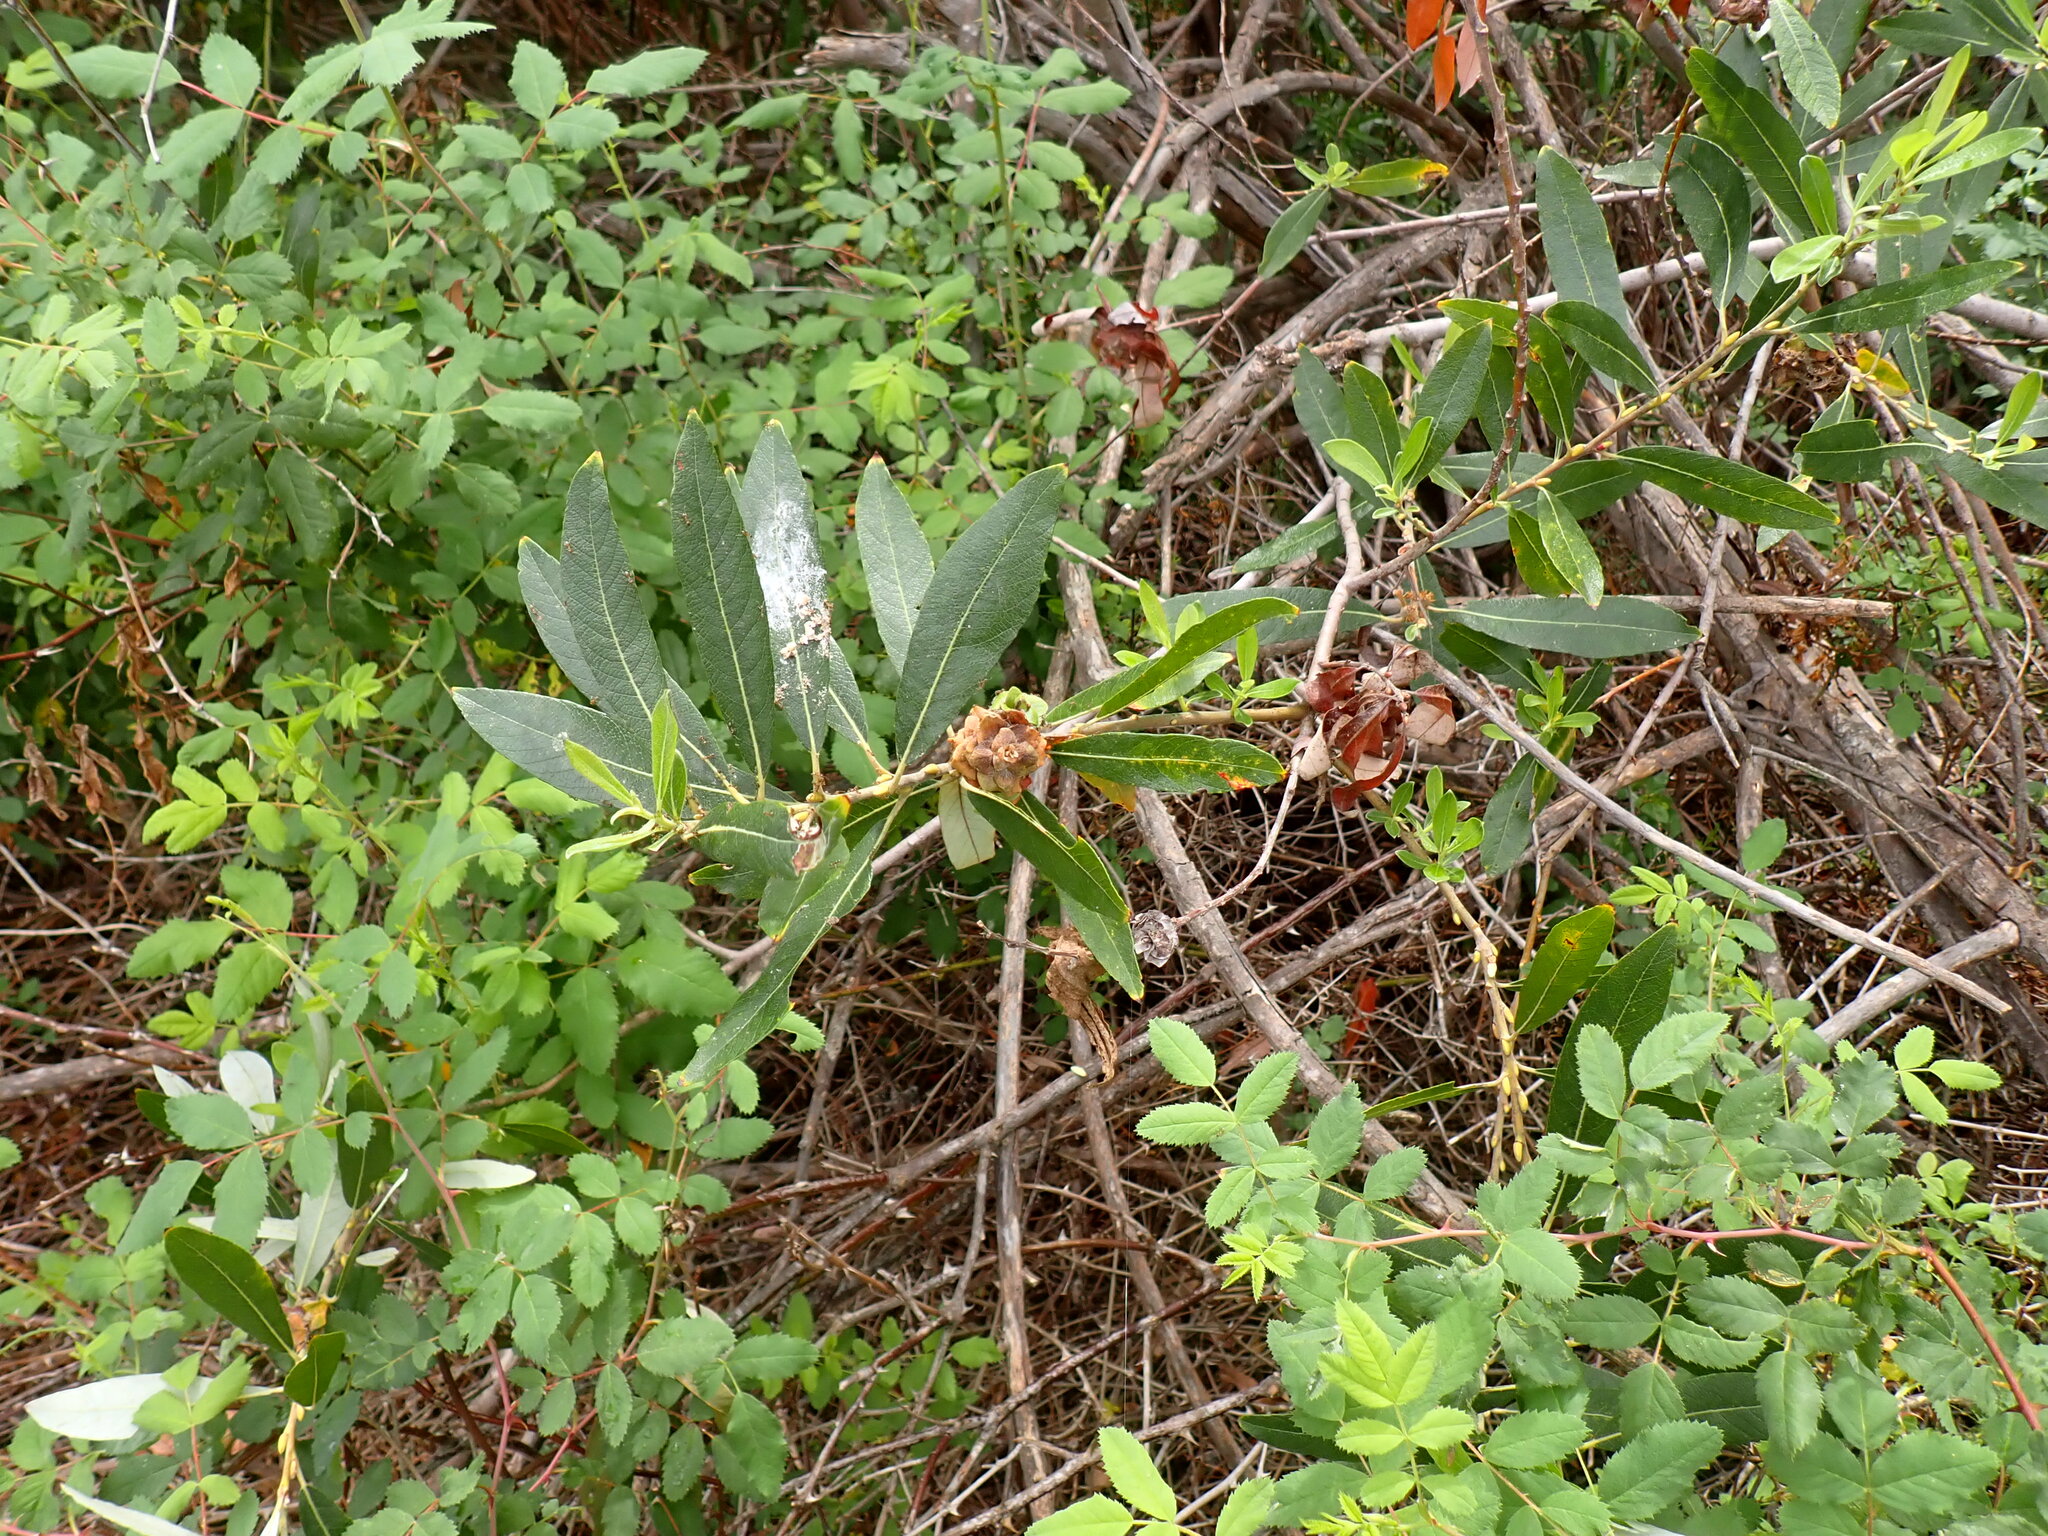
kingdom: Plantae
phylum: Tracheophyta
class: Magnoliopsida
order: Malpighiales
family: Salicaceae
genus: Salix
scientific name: Salix lasiolepis
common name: Arroyo willow
